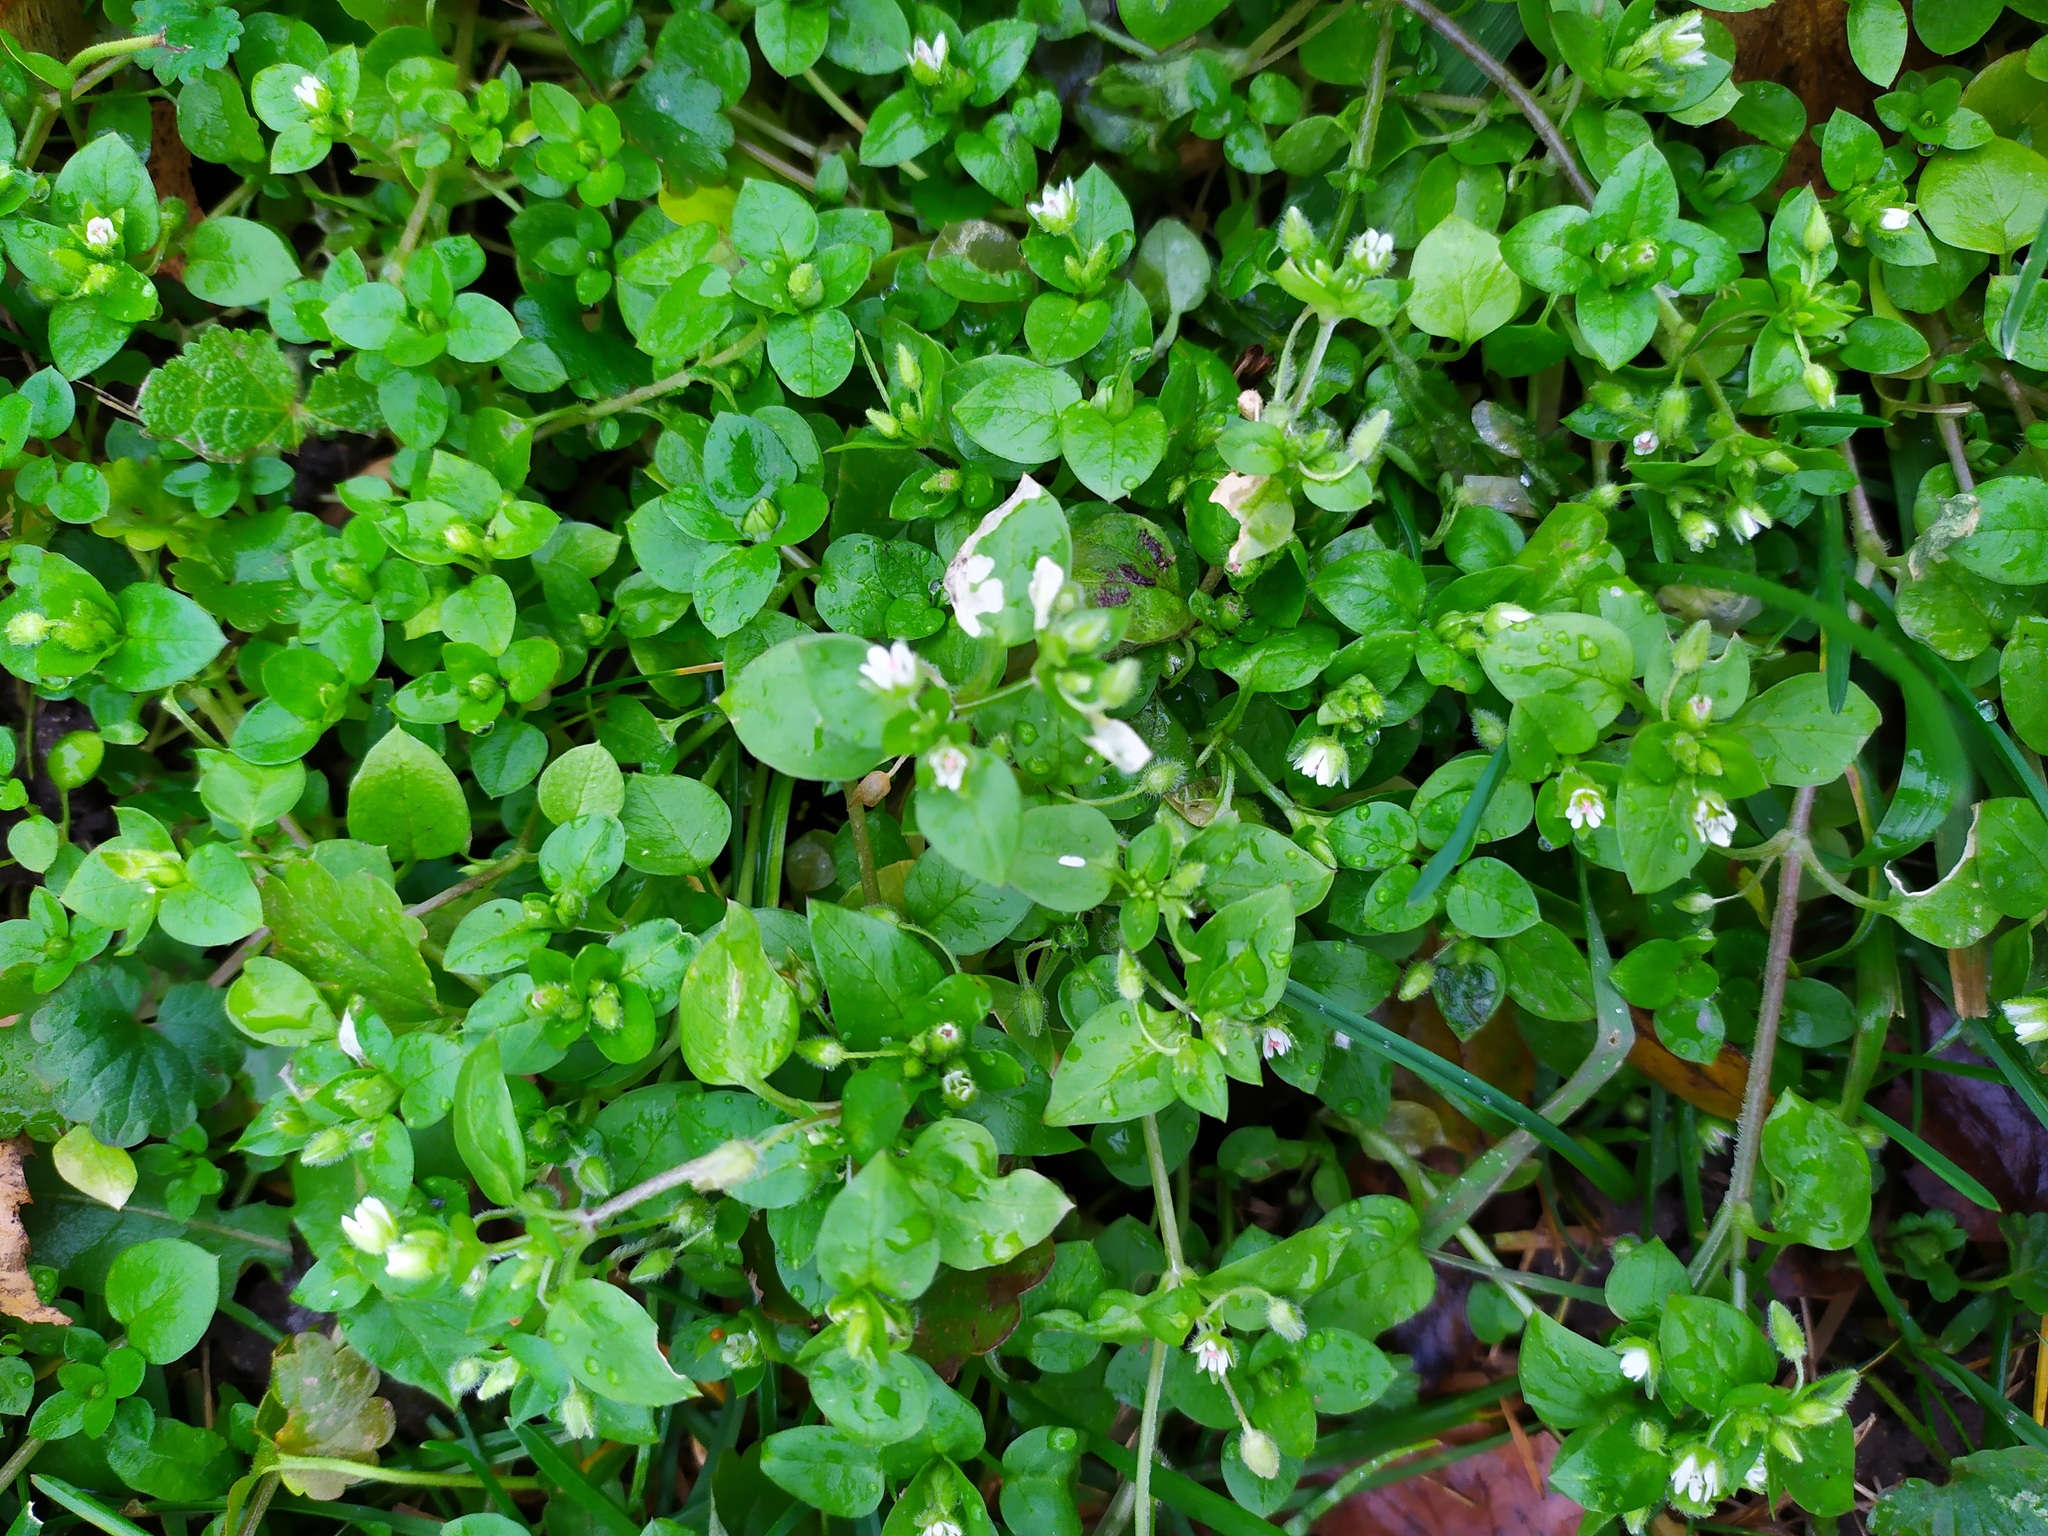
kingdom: Plantae
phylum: Tracheophyta
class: Magnoliopsida
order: Caryophyllales
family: Caryophyllaceae
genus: Stellaria
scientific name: Stellaria media
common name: Common chickweed
